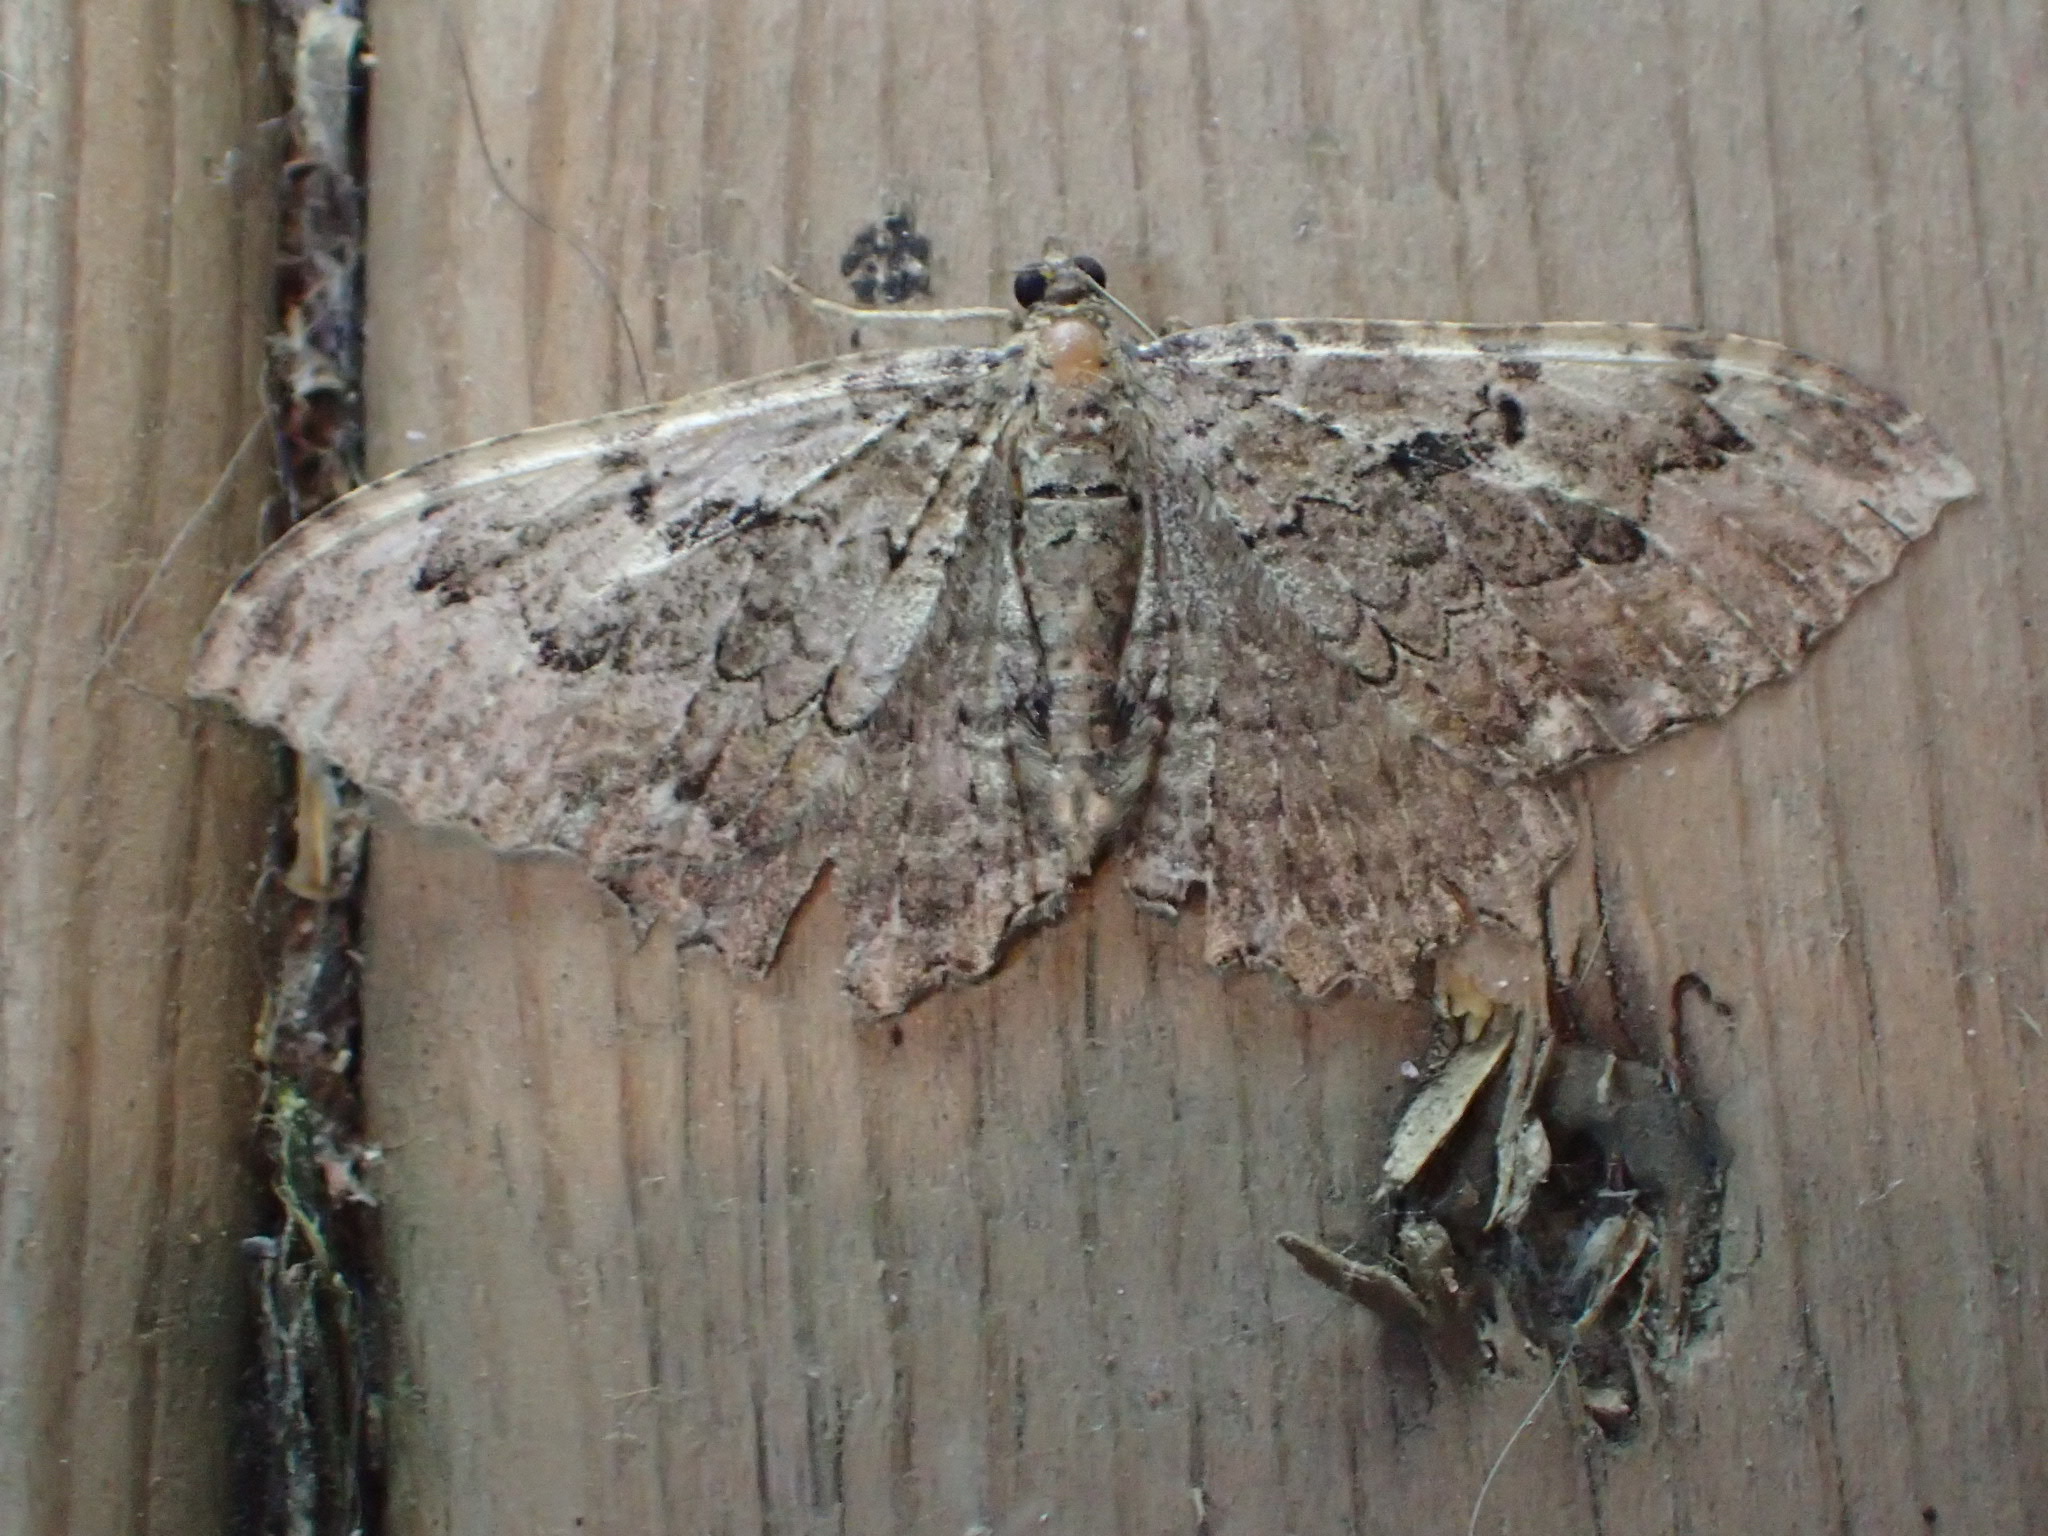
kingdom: Animalia
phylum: Arthropoda
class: Insecta
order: Lepidoptera
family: Geometridae
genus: Rheumaptera
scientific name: Rheumaptera
